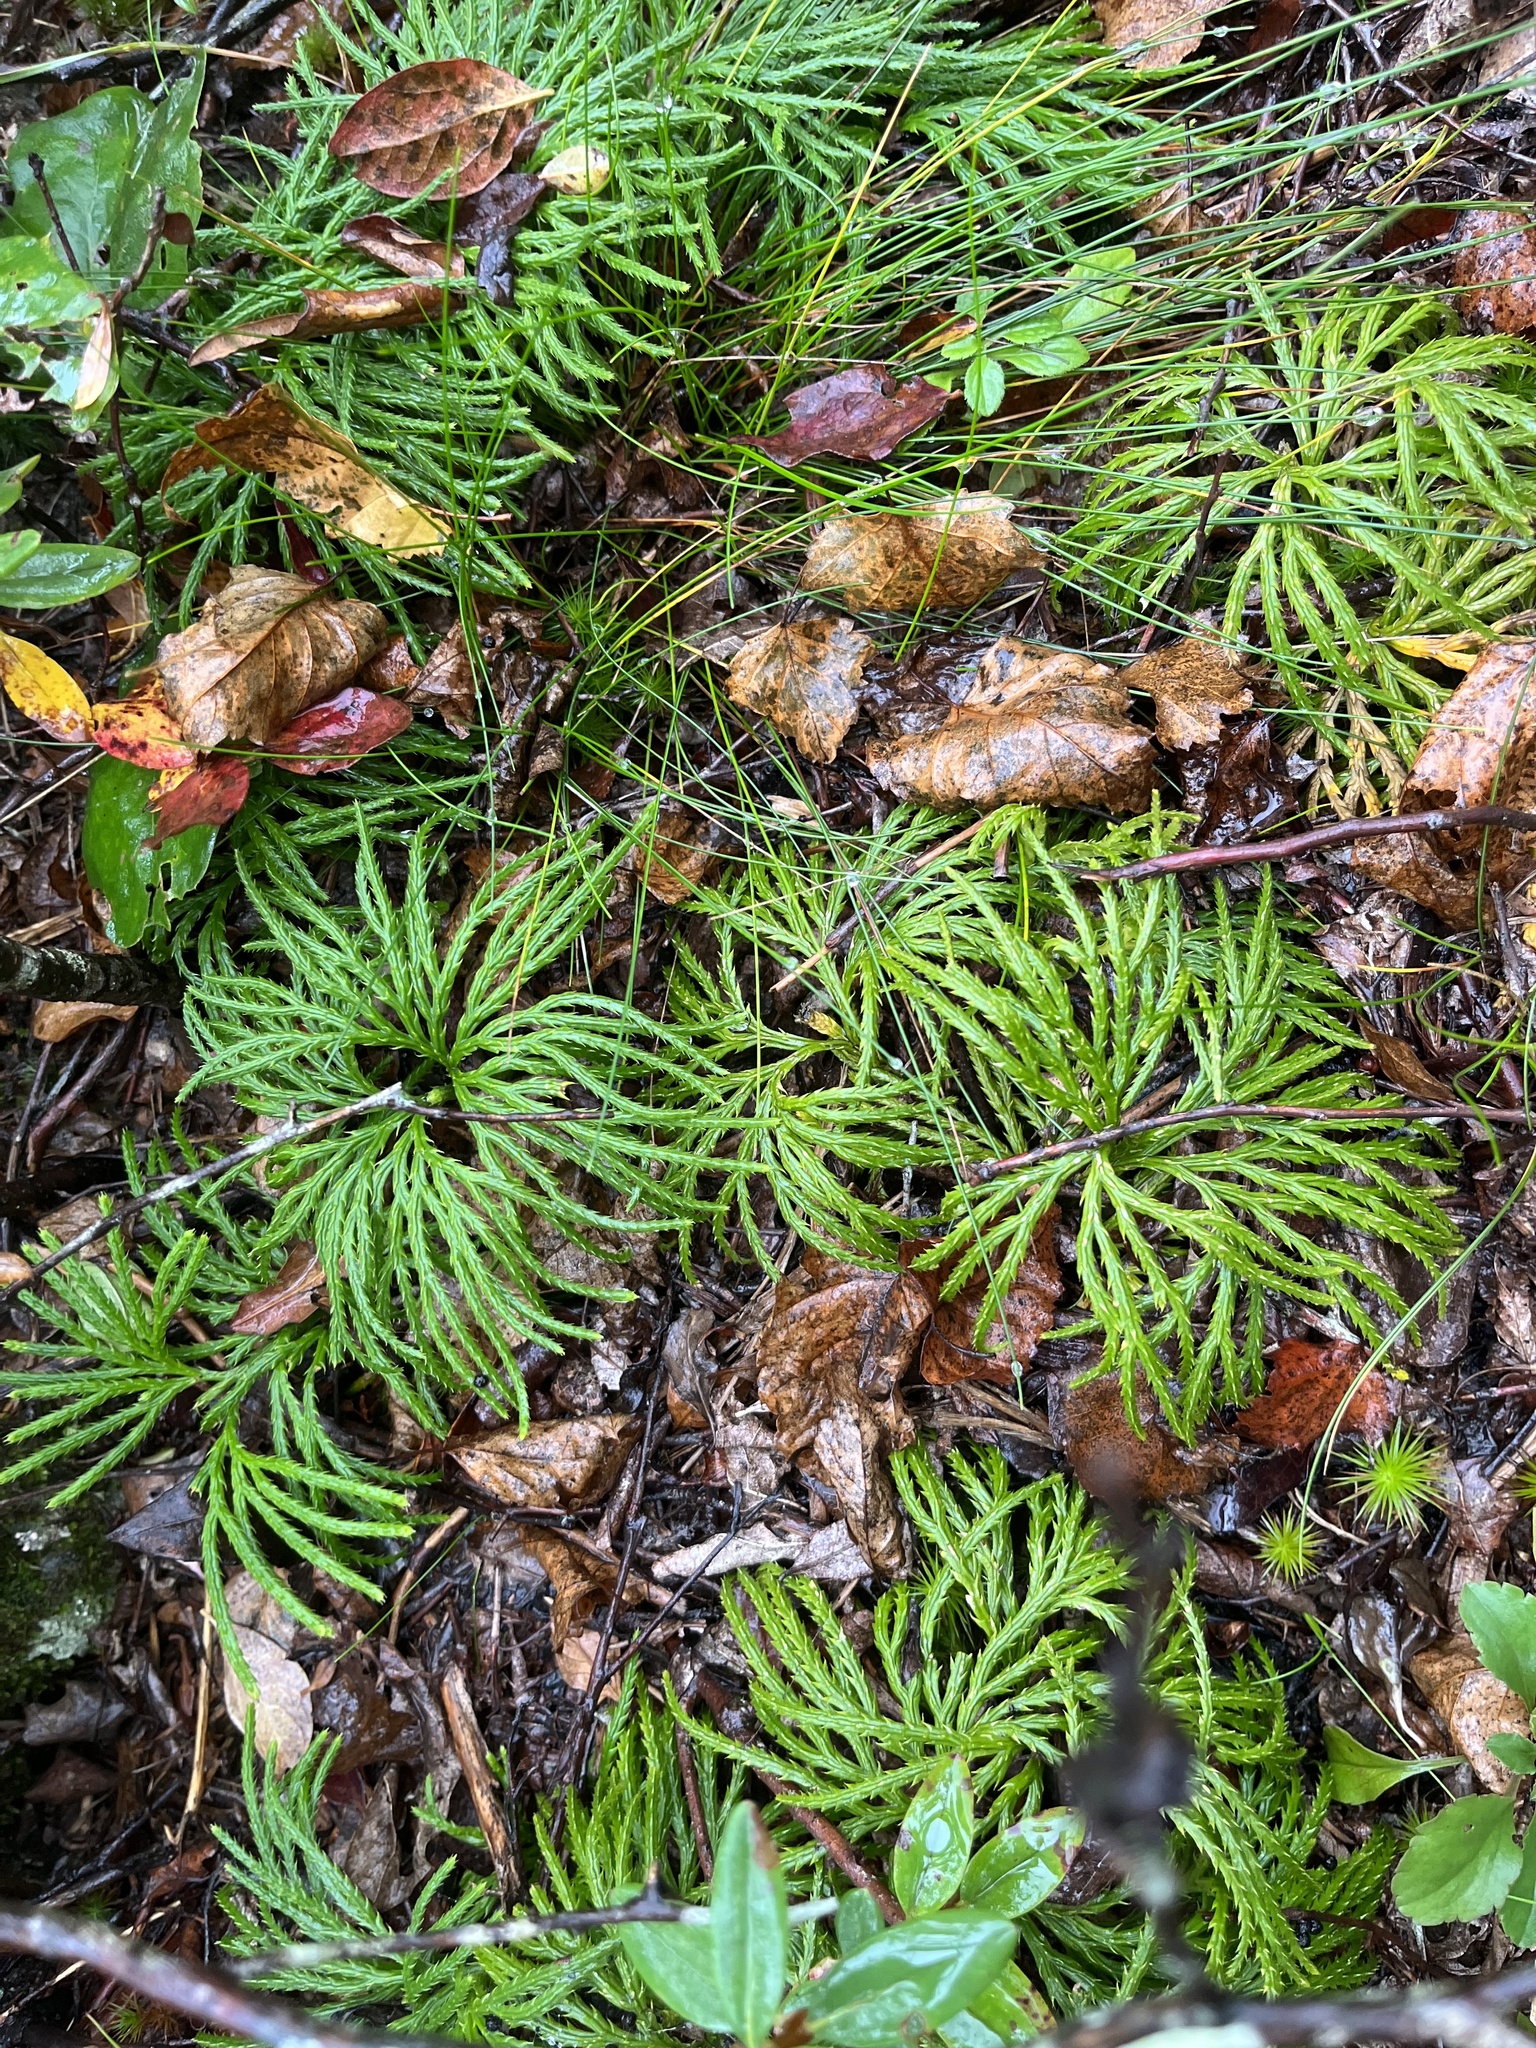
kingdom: Plantae
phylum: Tracheophyta
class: Lycopodiopsida
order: Lycopodiales
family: Lycopodiaceae
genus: Diphasiastrum
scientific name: Diphasiastrum digitatum
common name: Southern running-pine
